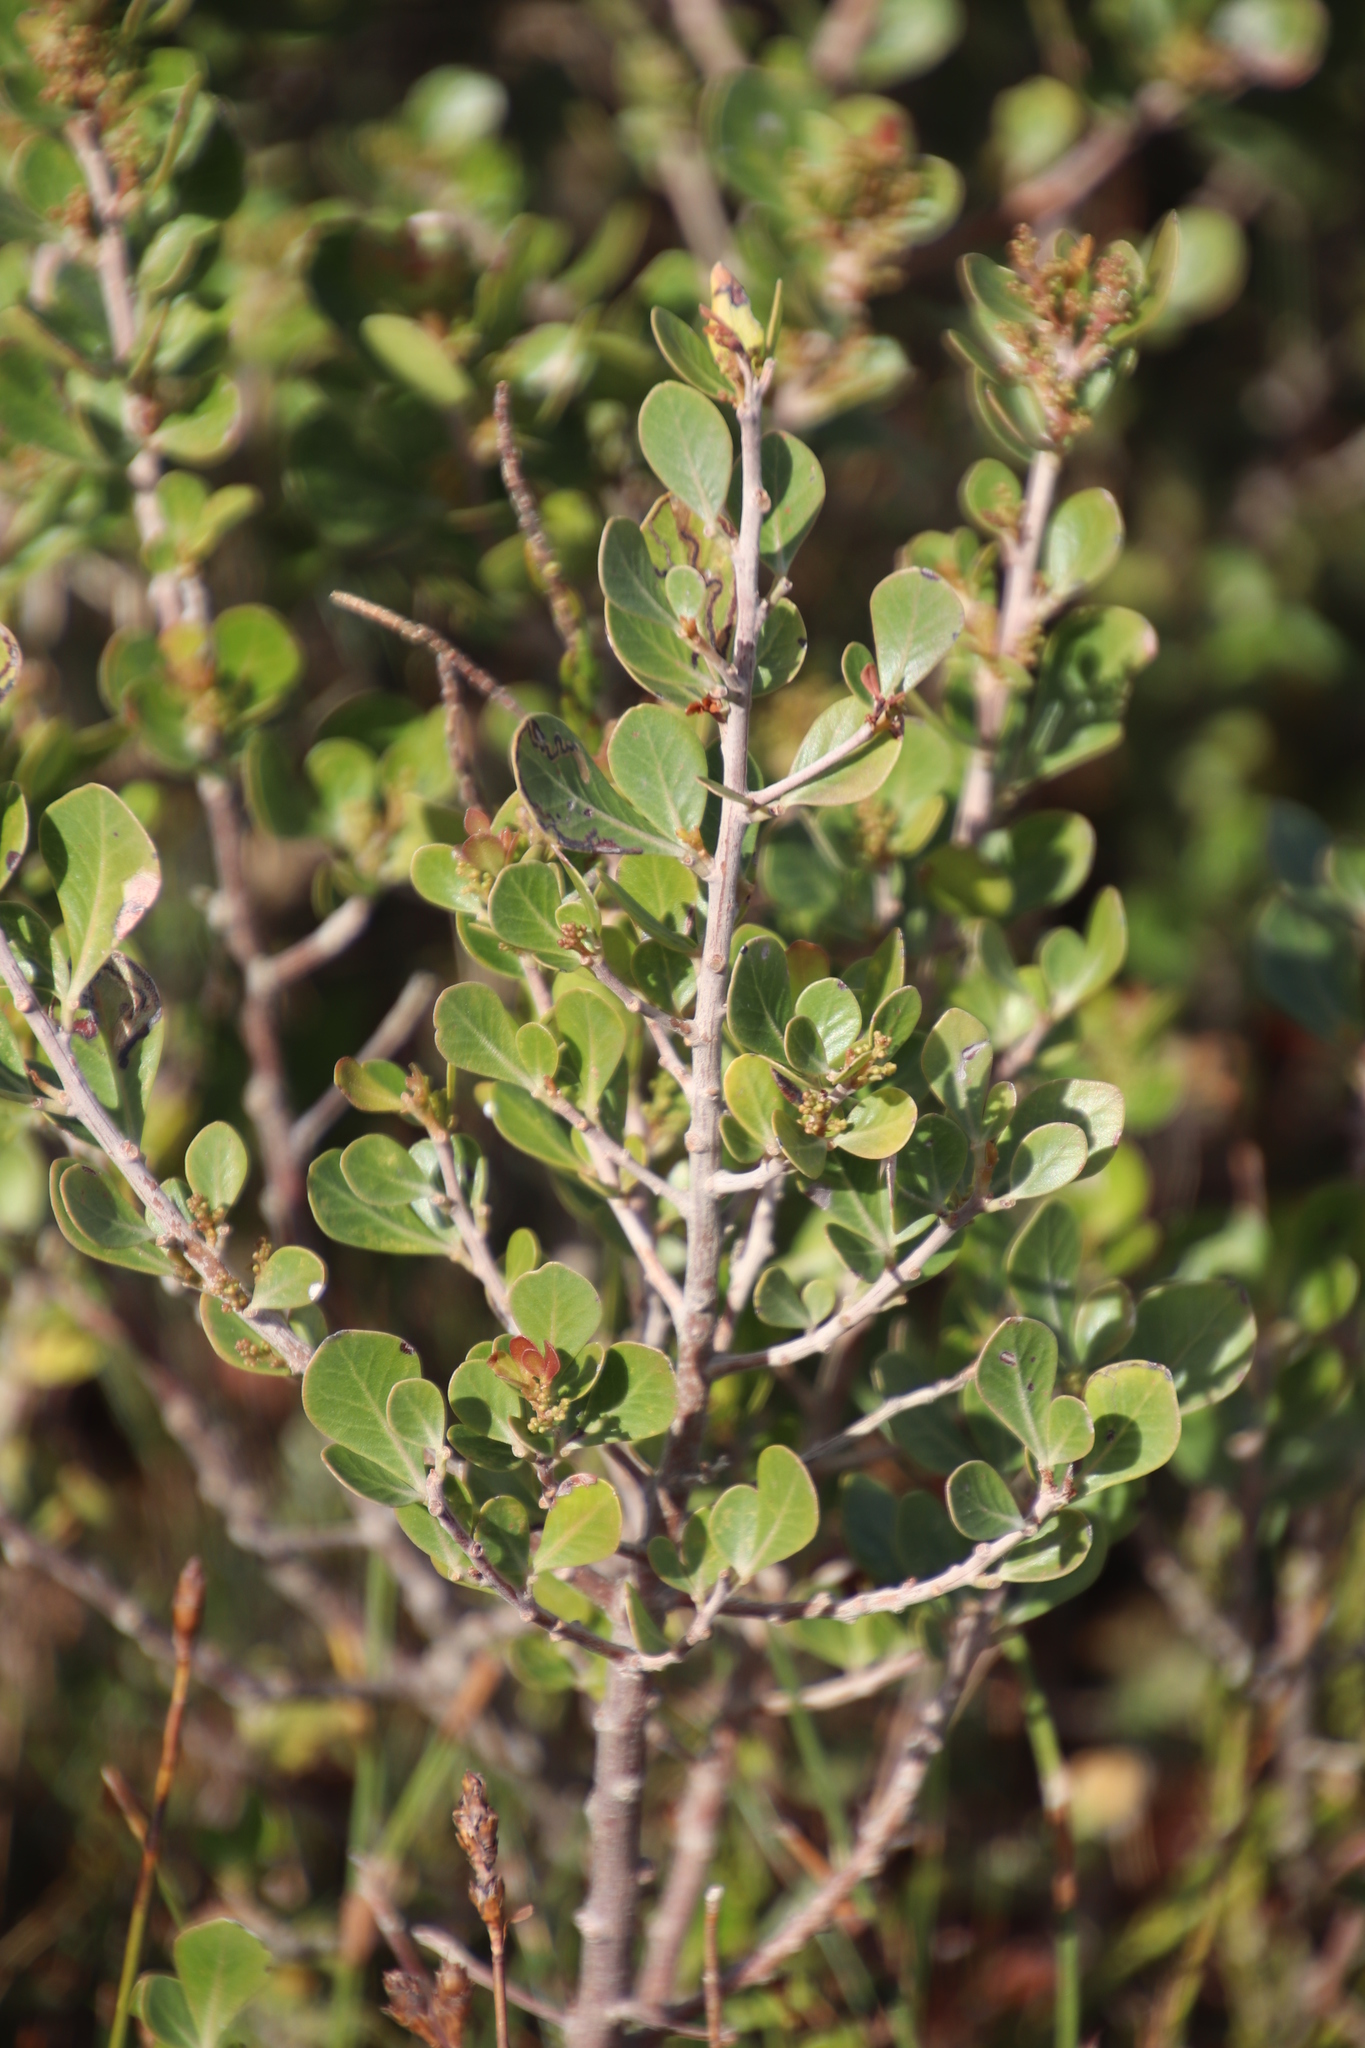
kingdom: Plantae
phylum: Tracheophyta
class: Magnoliopsida
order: Sapindales
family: Anacardiaceae
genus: Searsia
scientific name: Searsia lucida
